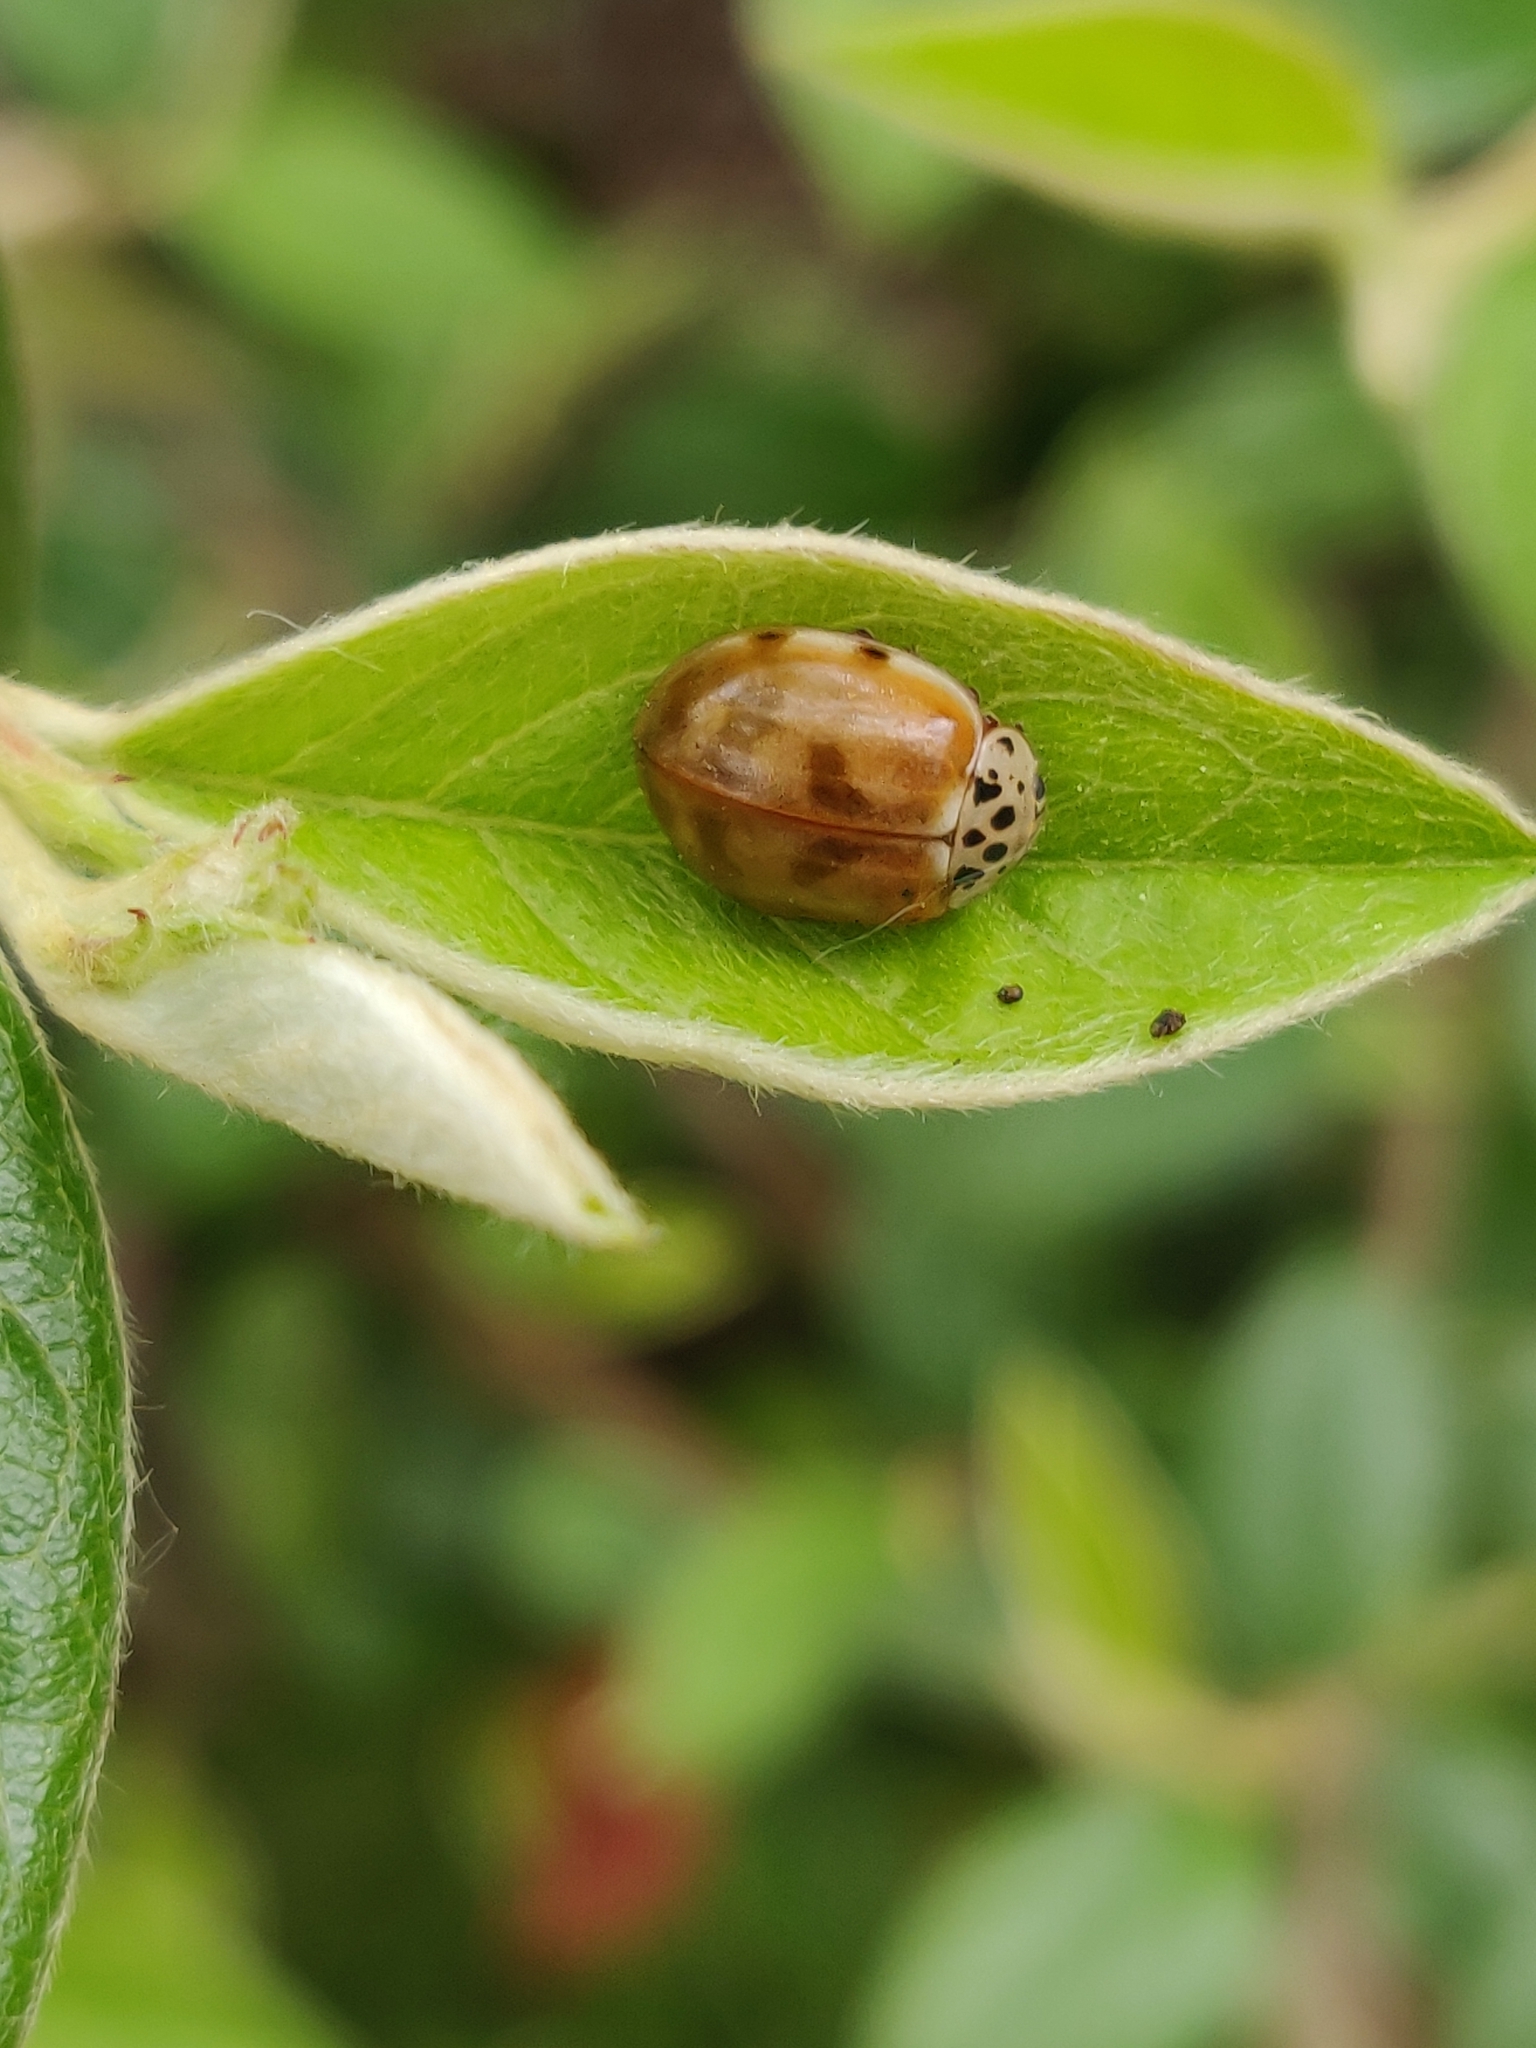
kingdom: Animalia
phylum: Arthropoda
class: Insecta
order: Coleoptera
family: Coccinellidae
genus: Harmonia
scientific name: Harmonia quadripunctata
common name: Cream-streaked ladybird
